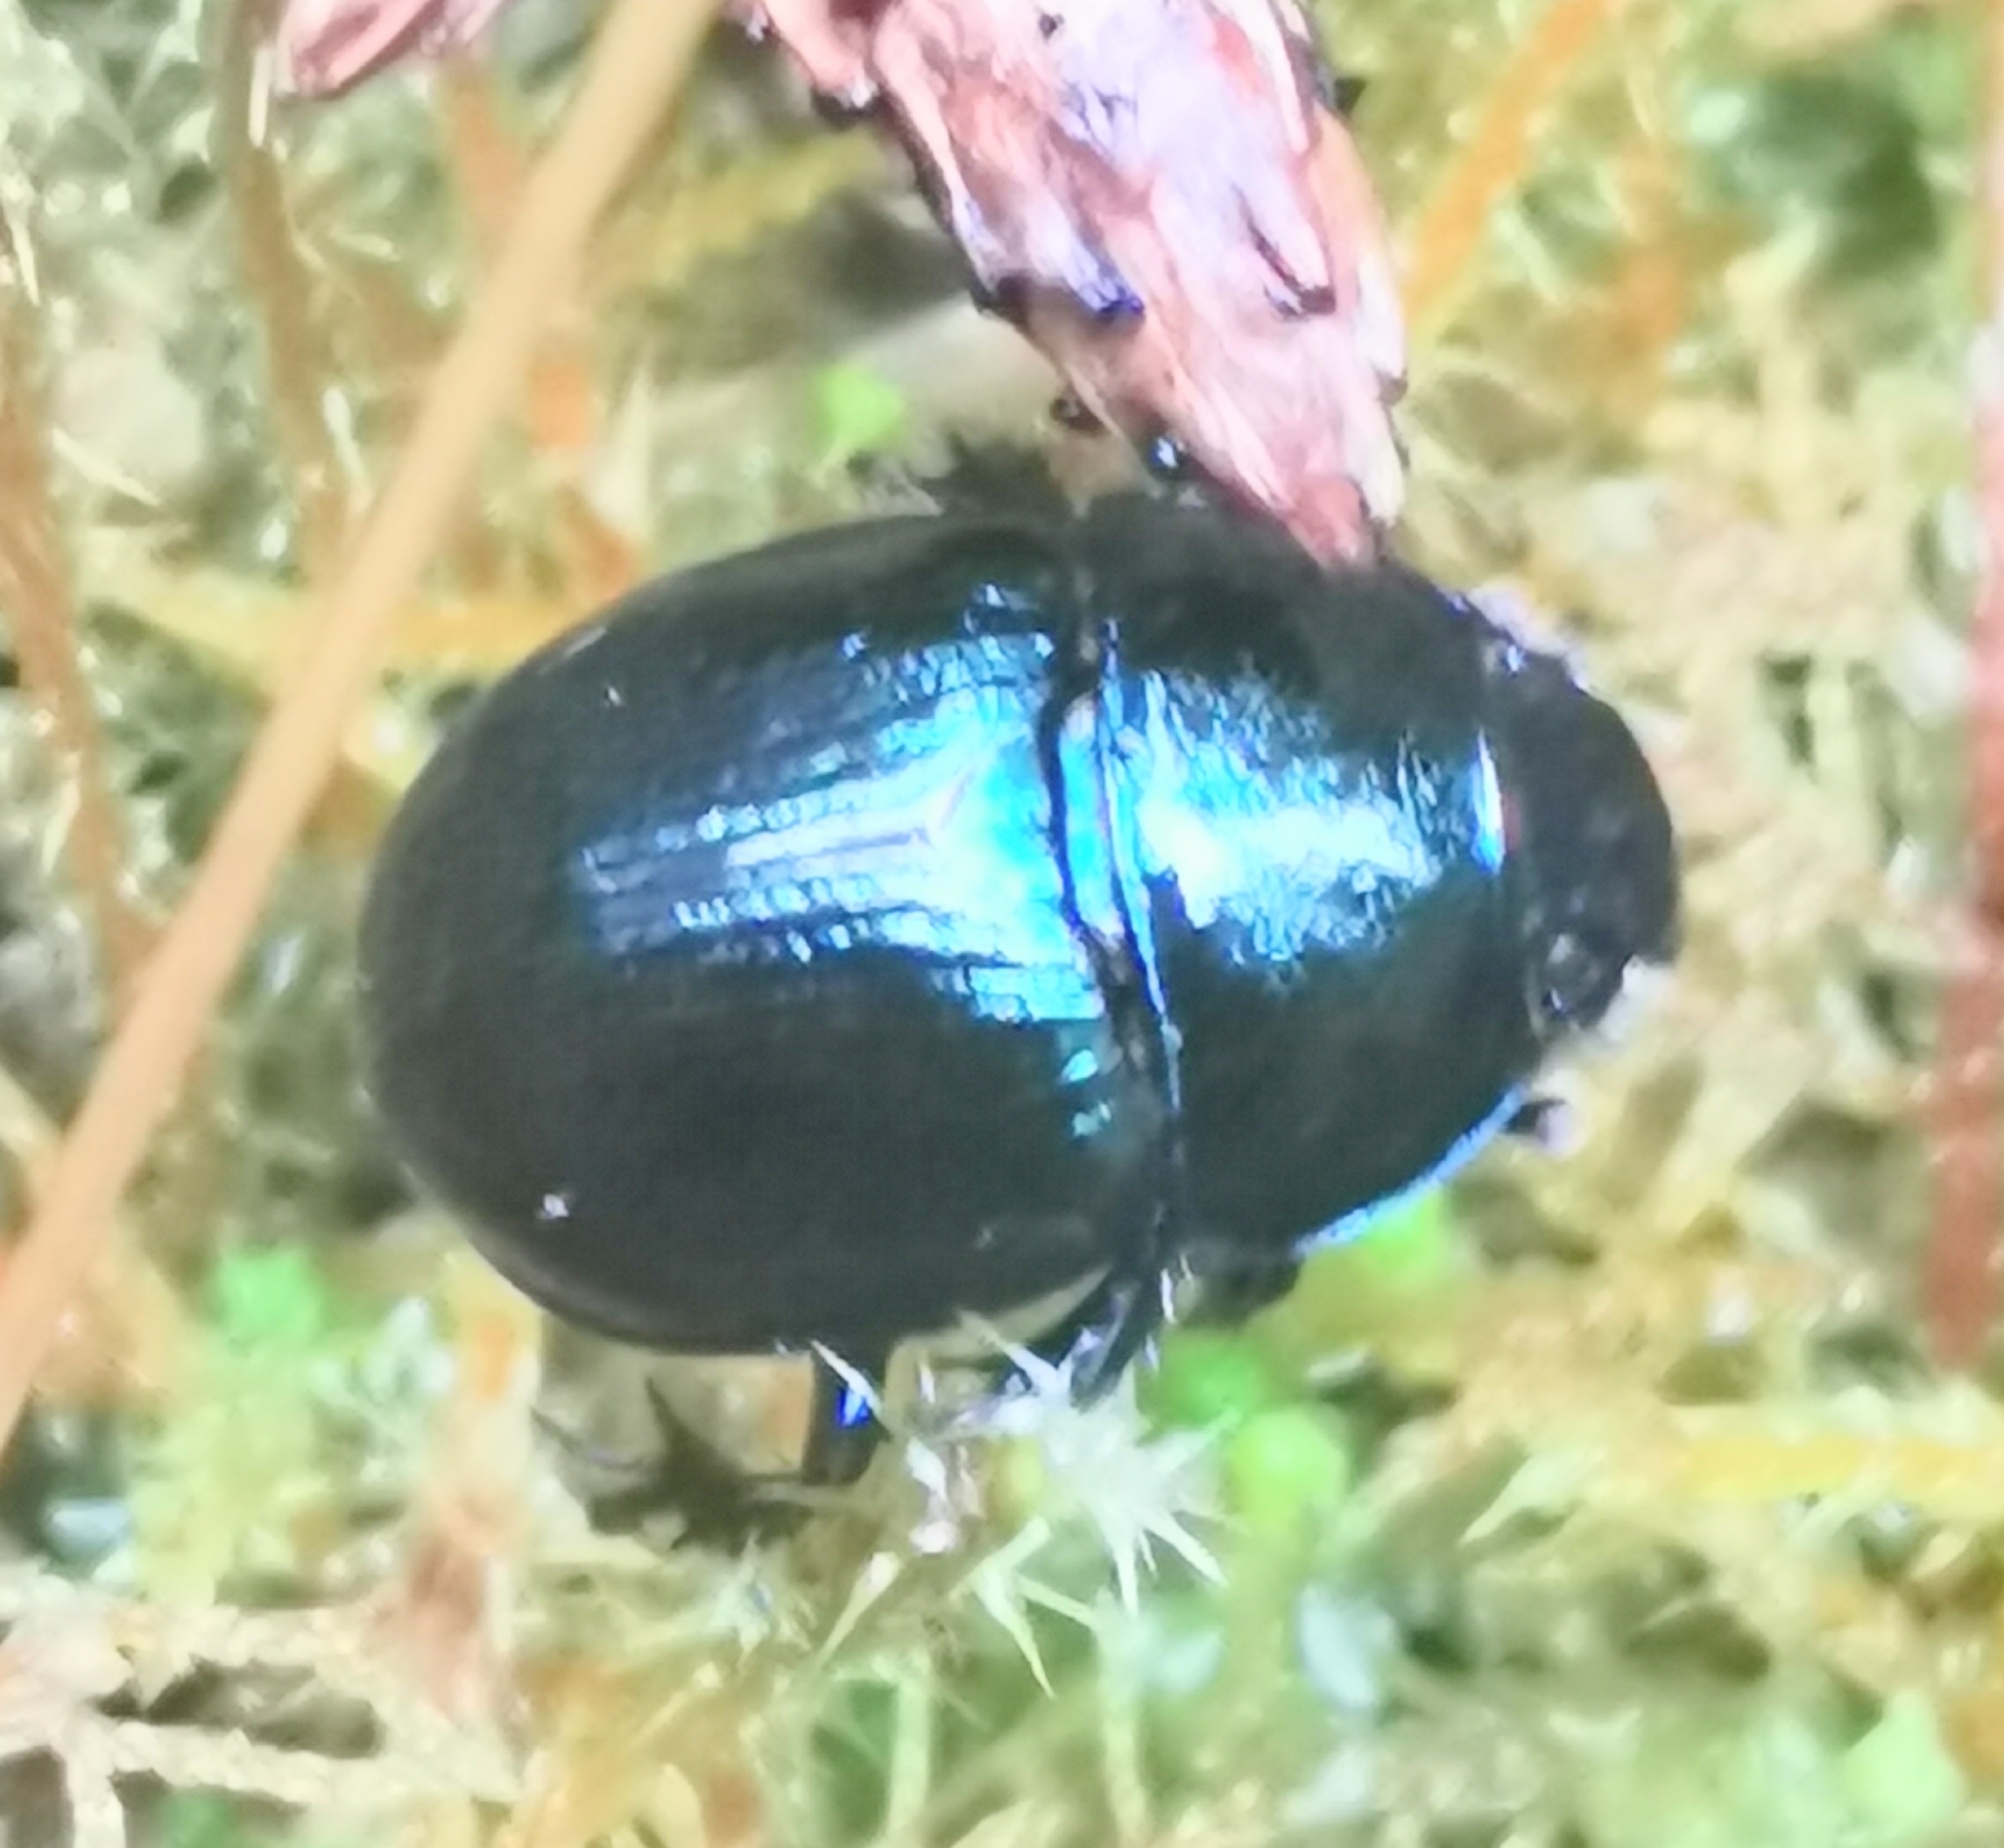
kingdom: Animalia
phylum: Arthropoda
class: Insecta
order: Coleoptera
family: Geotrupidae
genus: Anoplotrupes
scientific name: Anoplotrupes stercorosus
